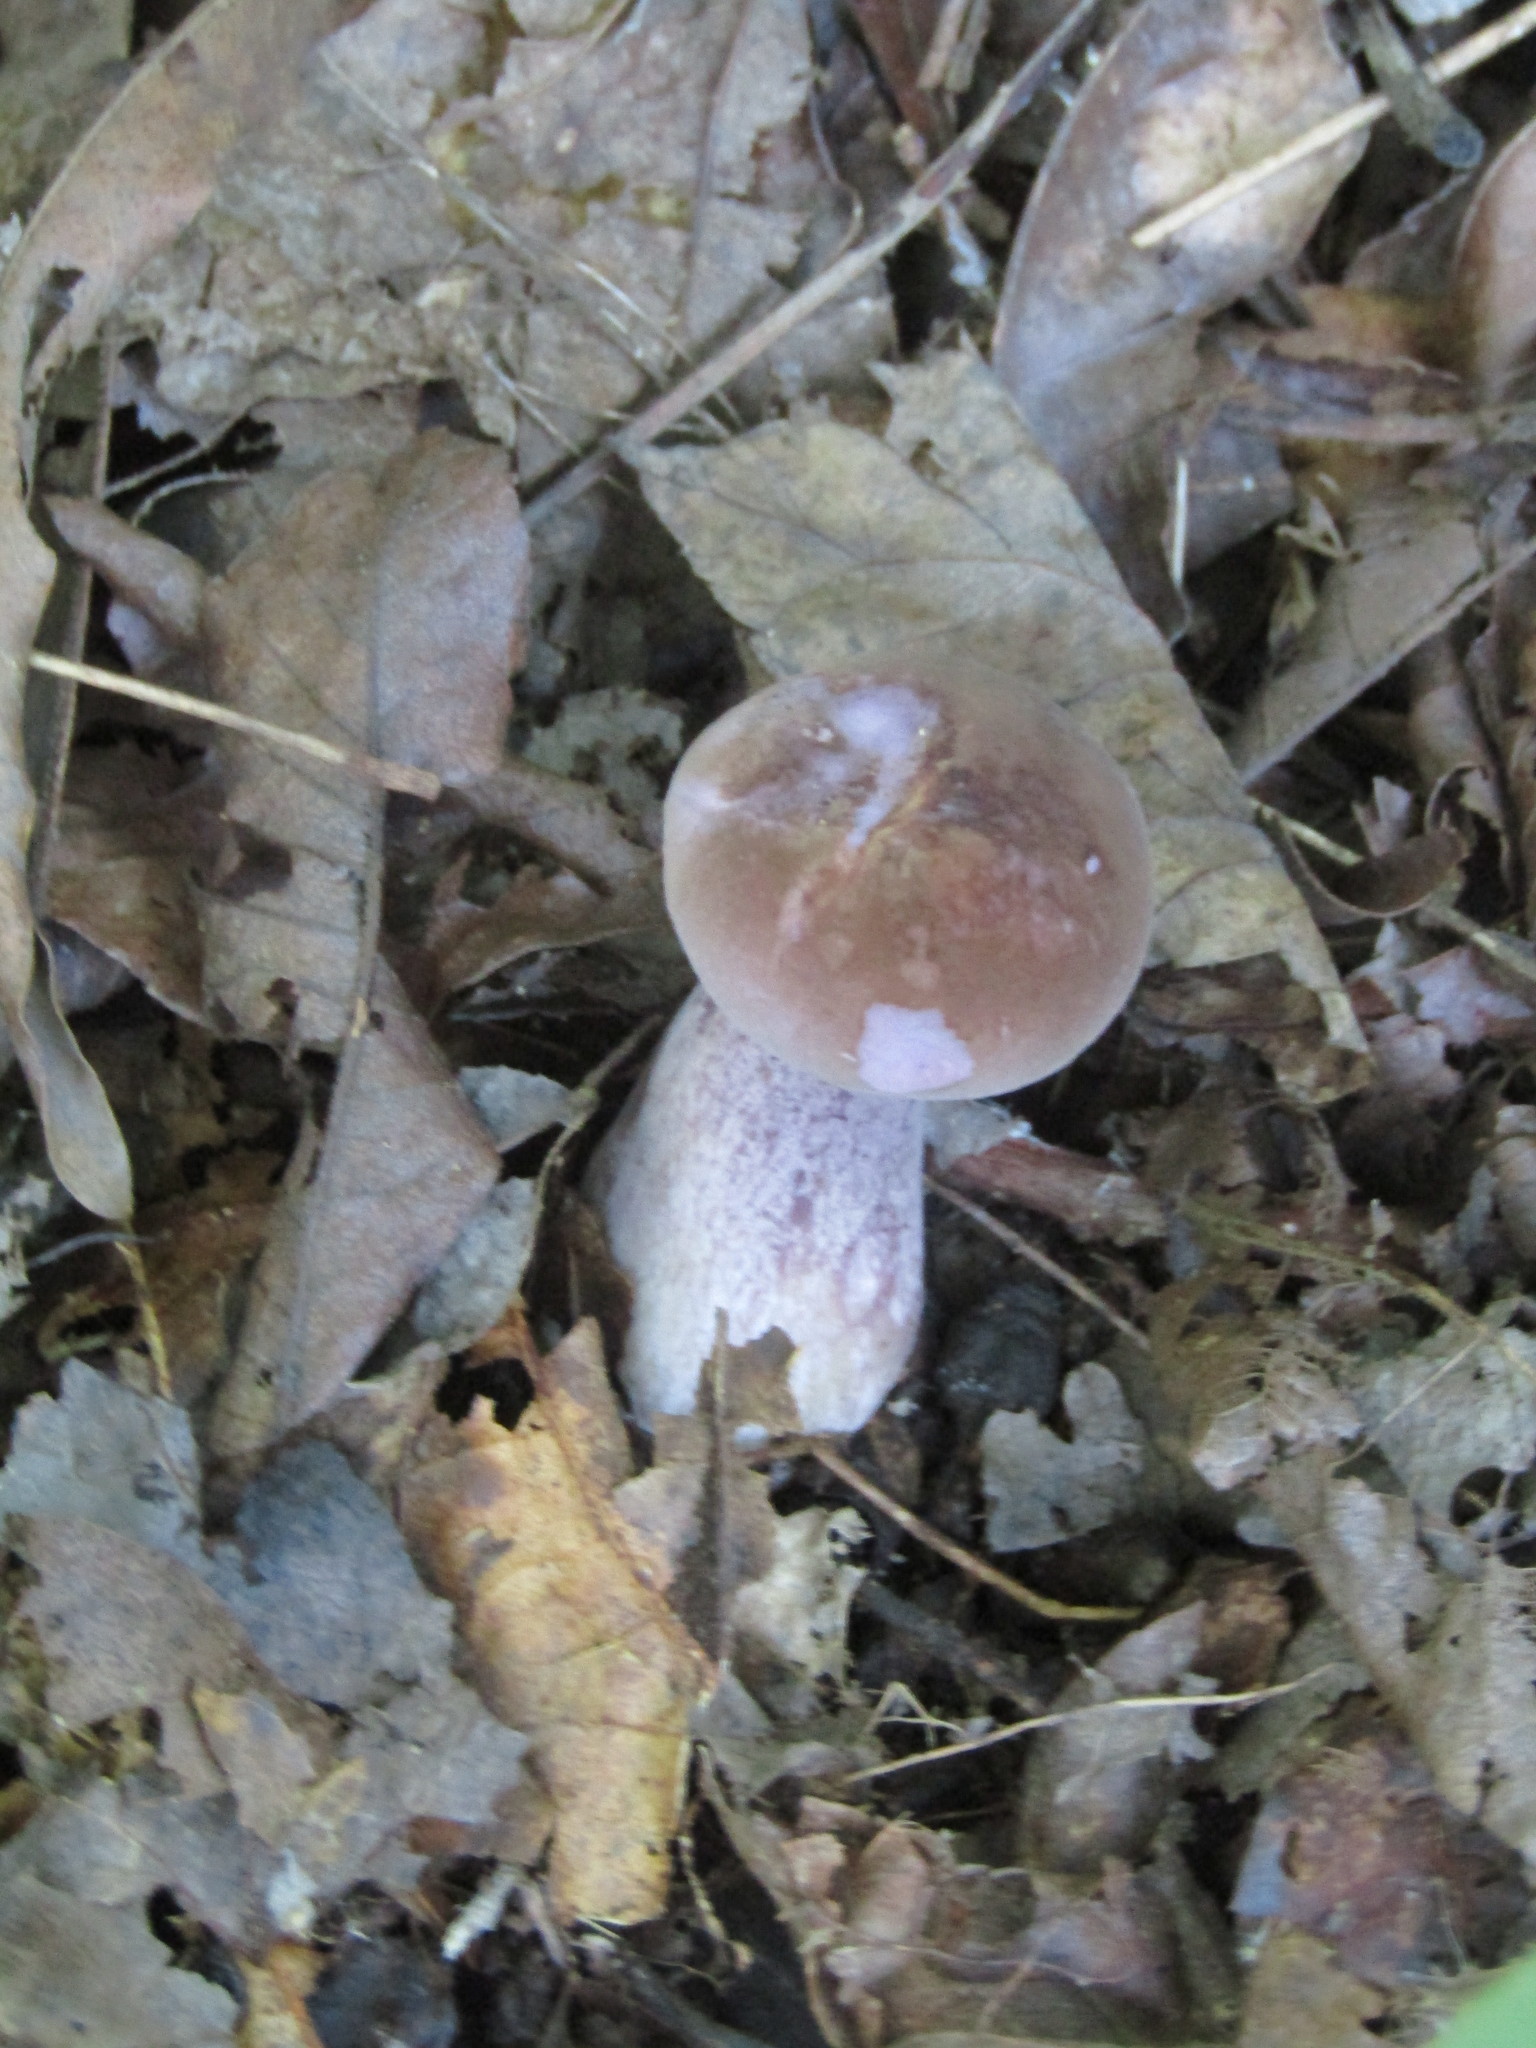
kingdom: Fungi
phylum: Basidiomycota
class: Agaricomycetes
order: Boletales
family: Boletaceae
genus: Tylopilus
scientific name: Tylopilus plumbeoviolaceus
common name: Violet gray bolete
